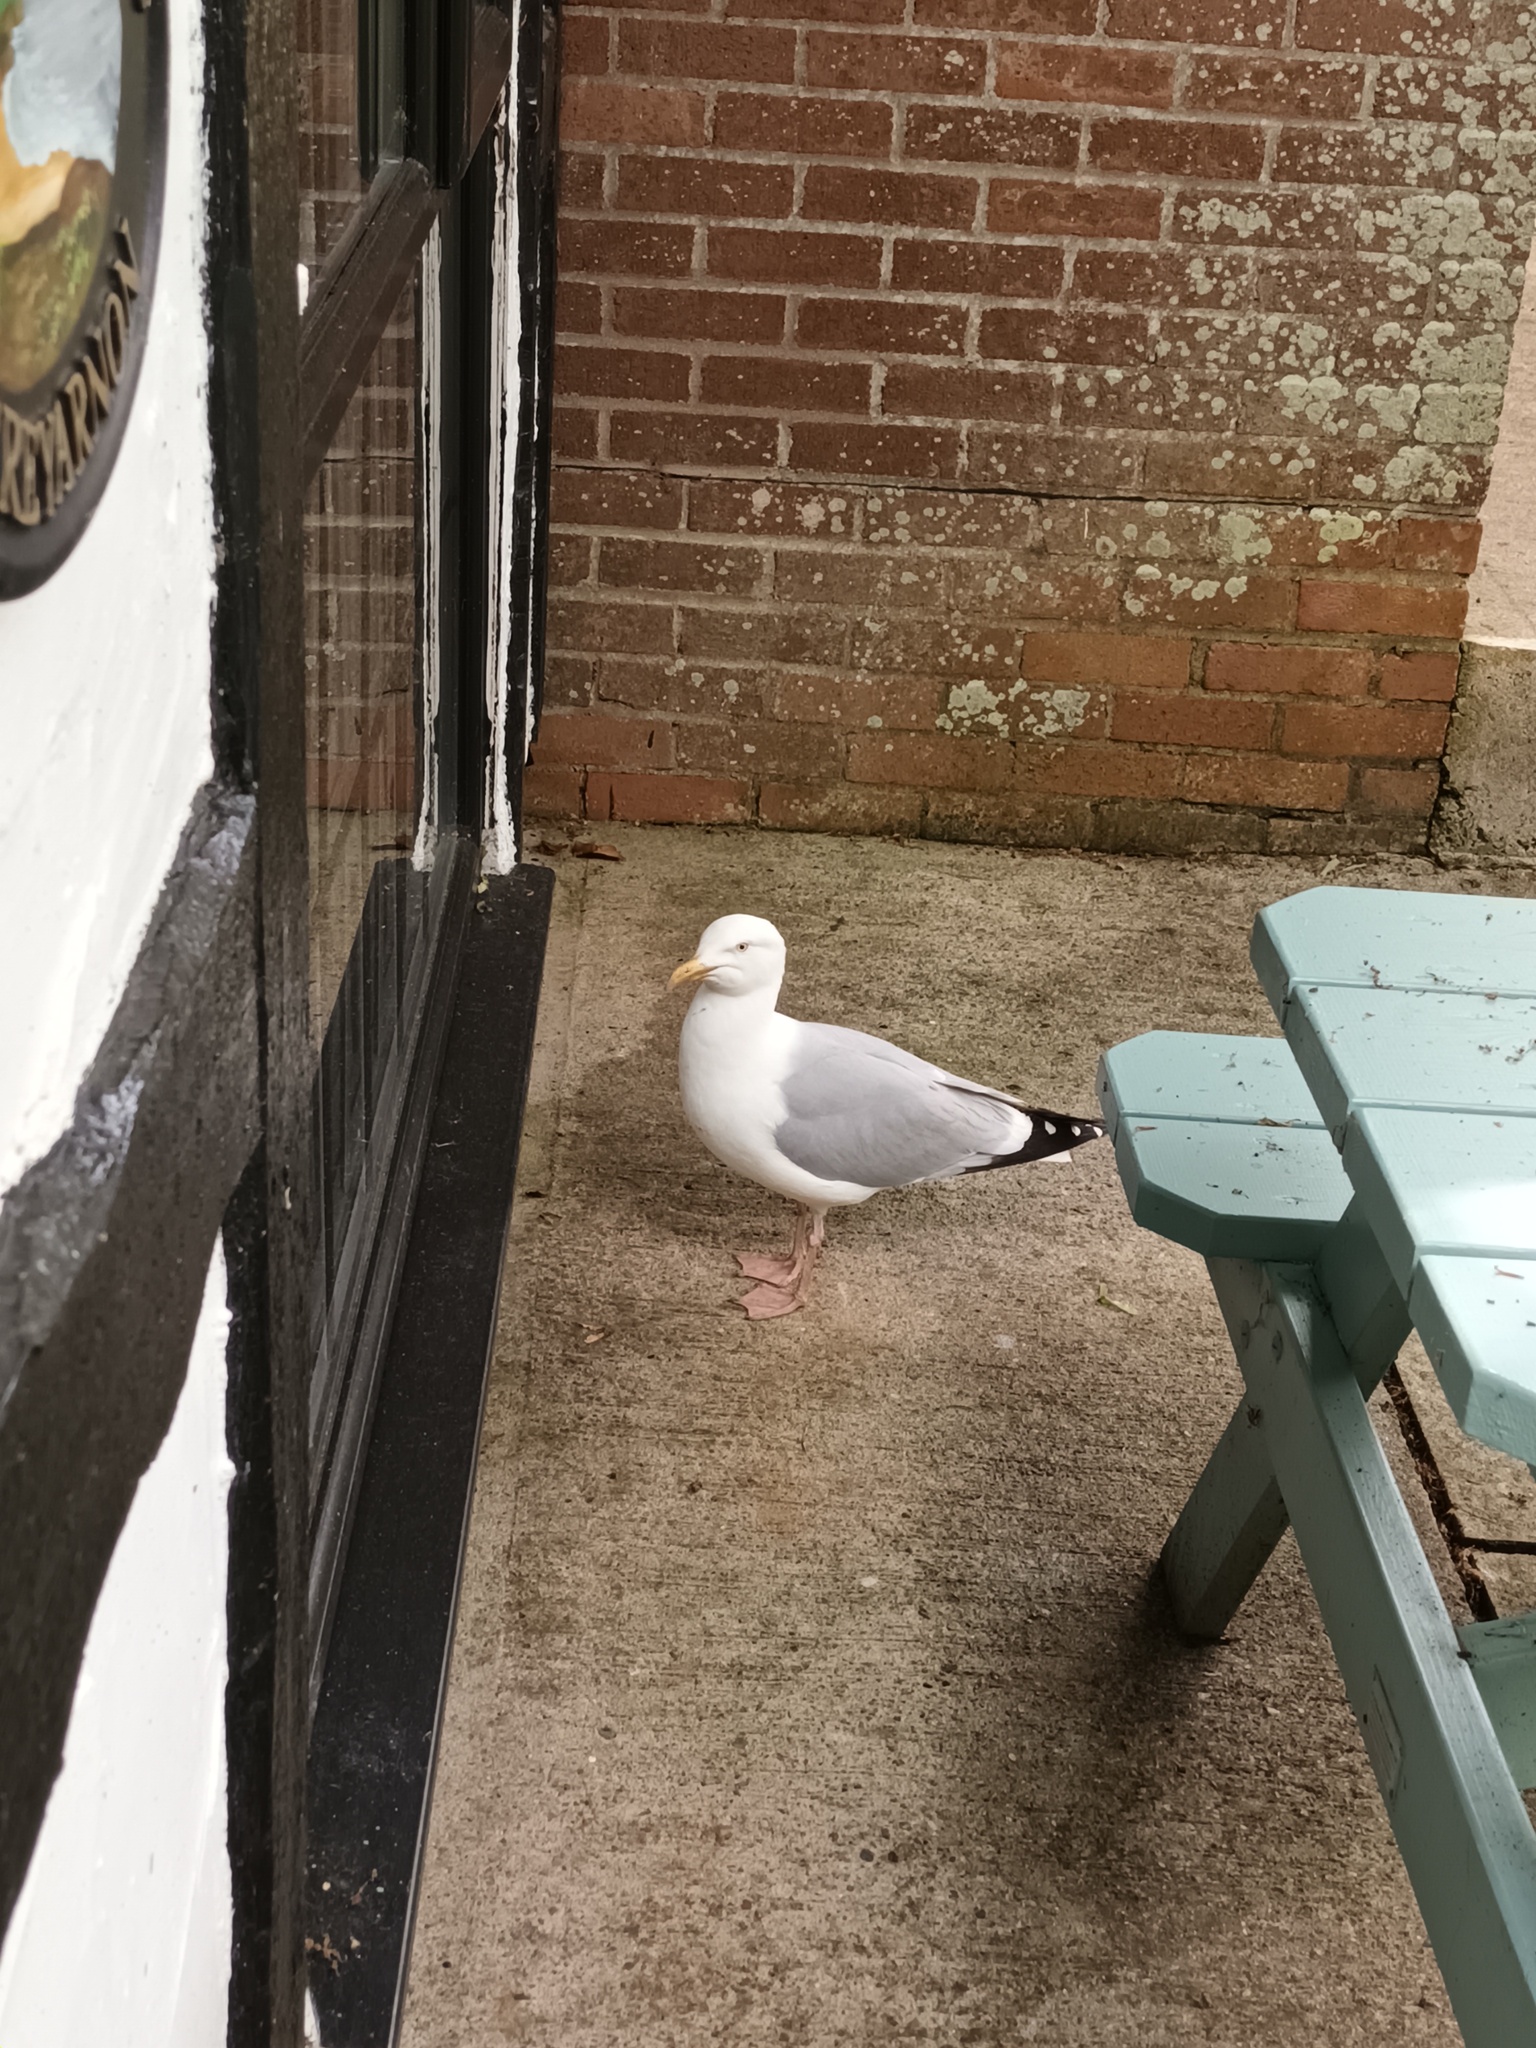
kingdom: Animalia
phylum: Chordata
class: Aves
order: Charadriiformes
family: Laridae
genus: Larus
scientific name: Larus argentatus
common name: Herring gull
